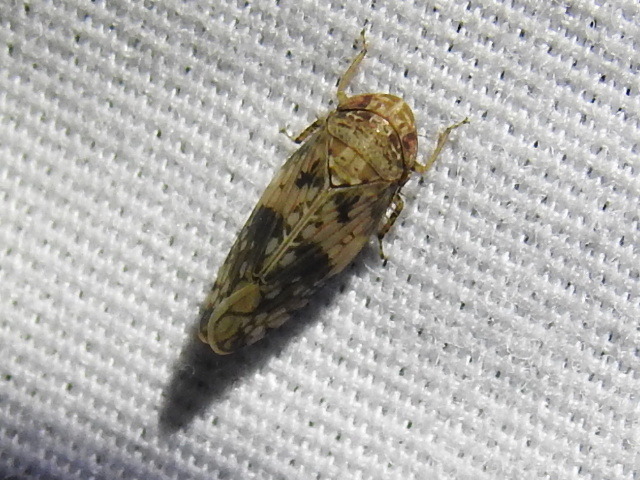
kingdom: Animalia
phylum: Arthropoda
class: Insecta
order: Hemiptera
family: Cicadellidae
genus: Menosoma
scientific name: Menosoma cinctum
